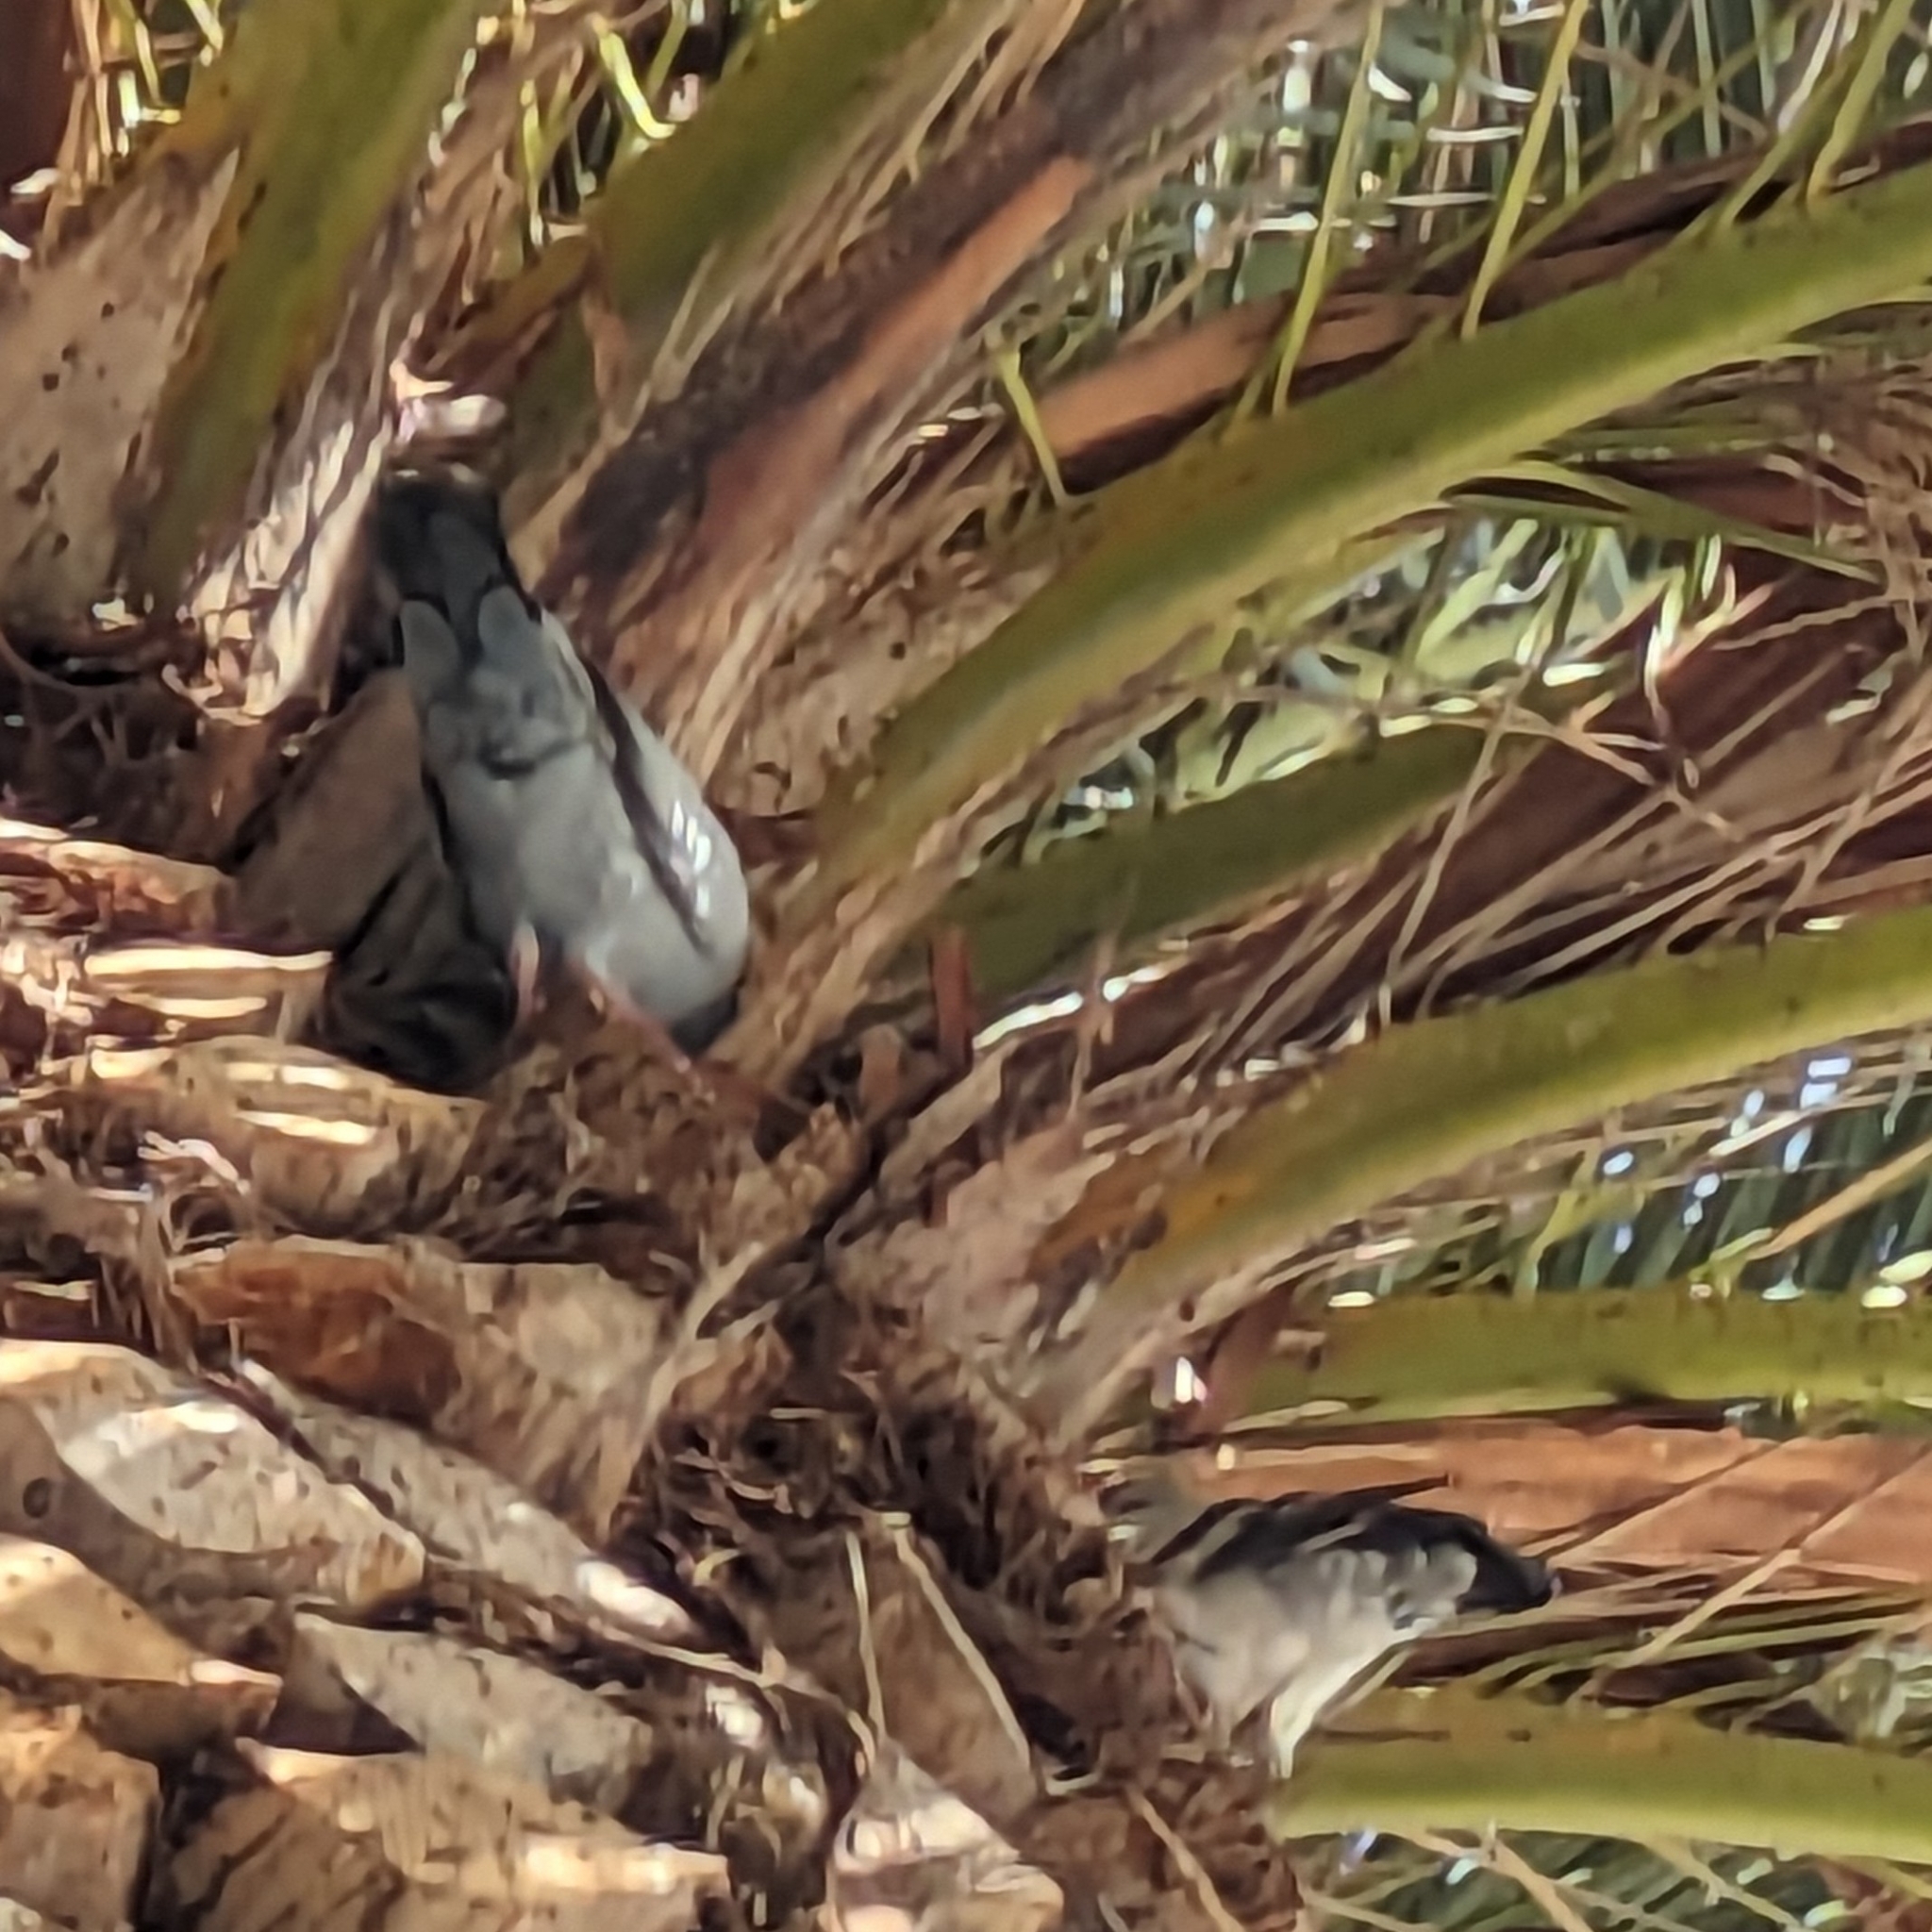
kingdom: Animalia
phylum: Chordata
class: Aves
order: Columbiformes
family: Columbidae
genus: Columba
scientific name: Columba livia
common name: Rock pigeon
